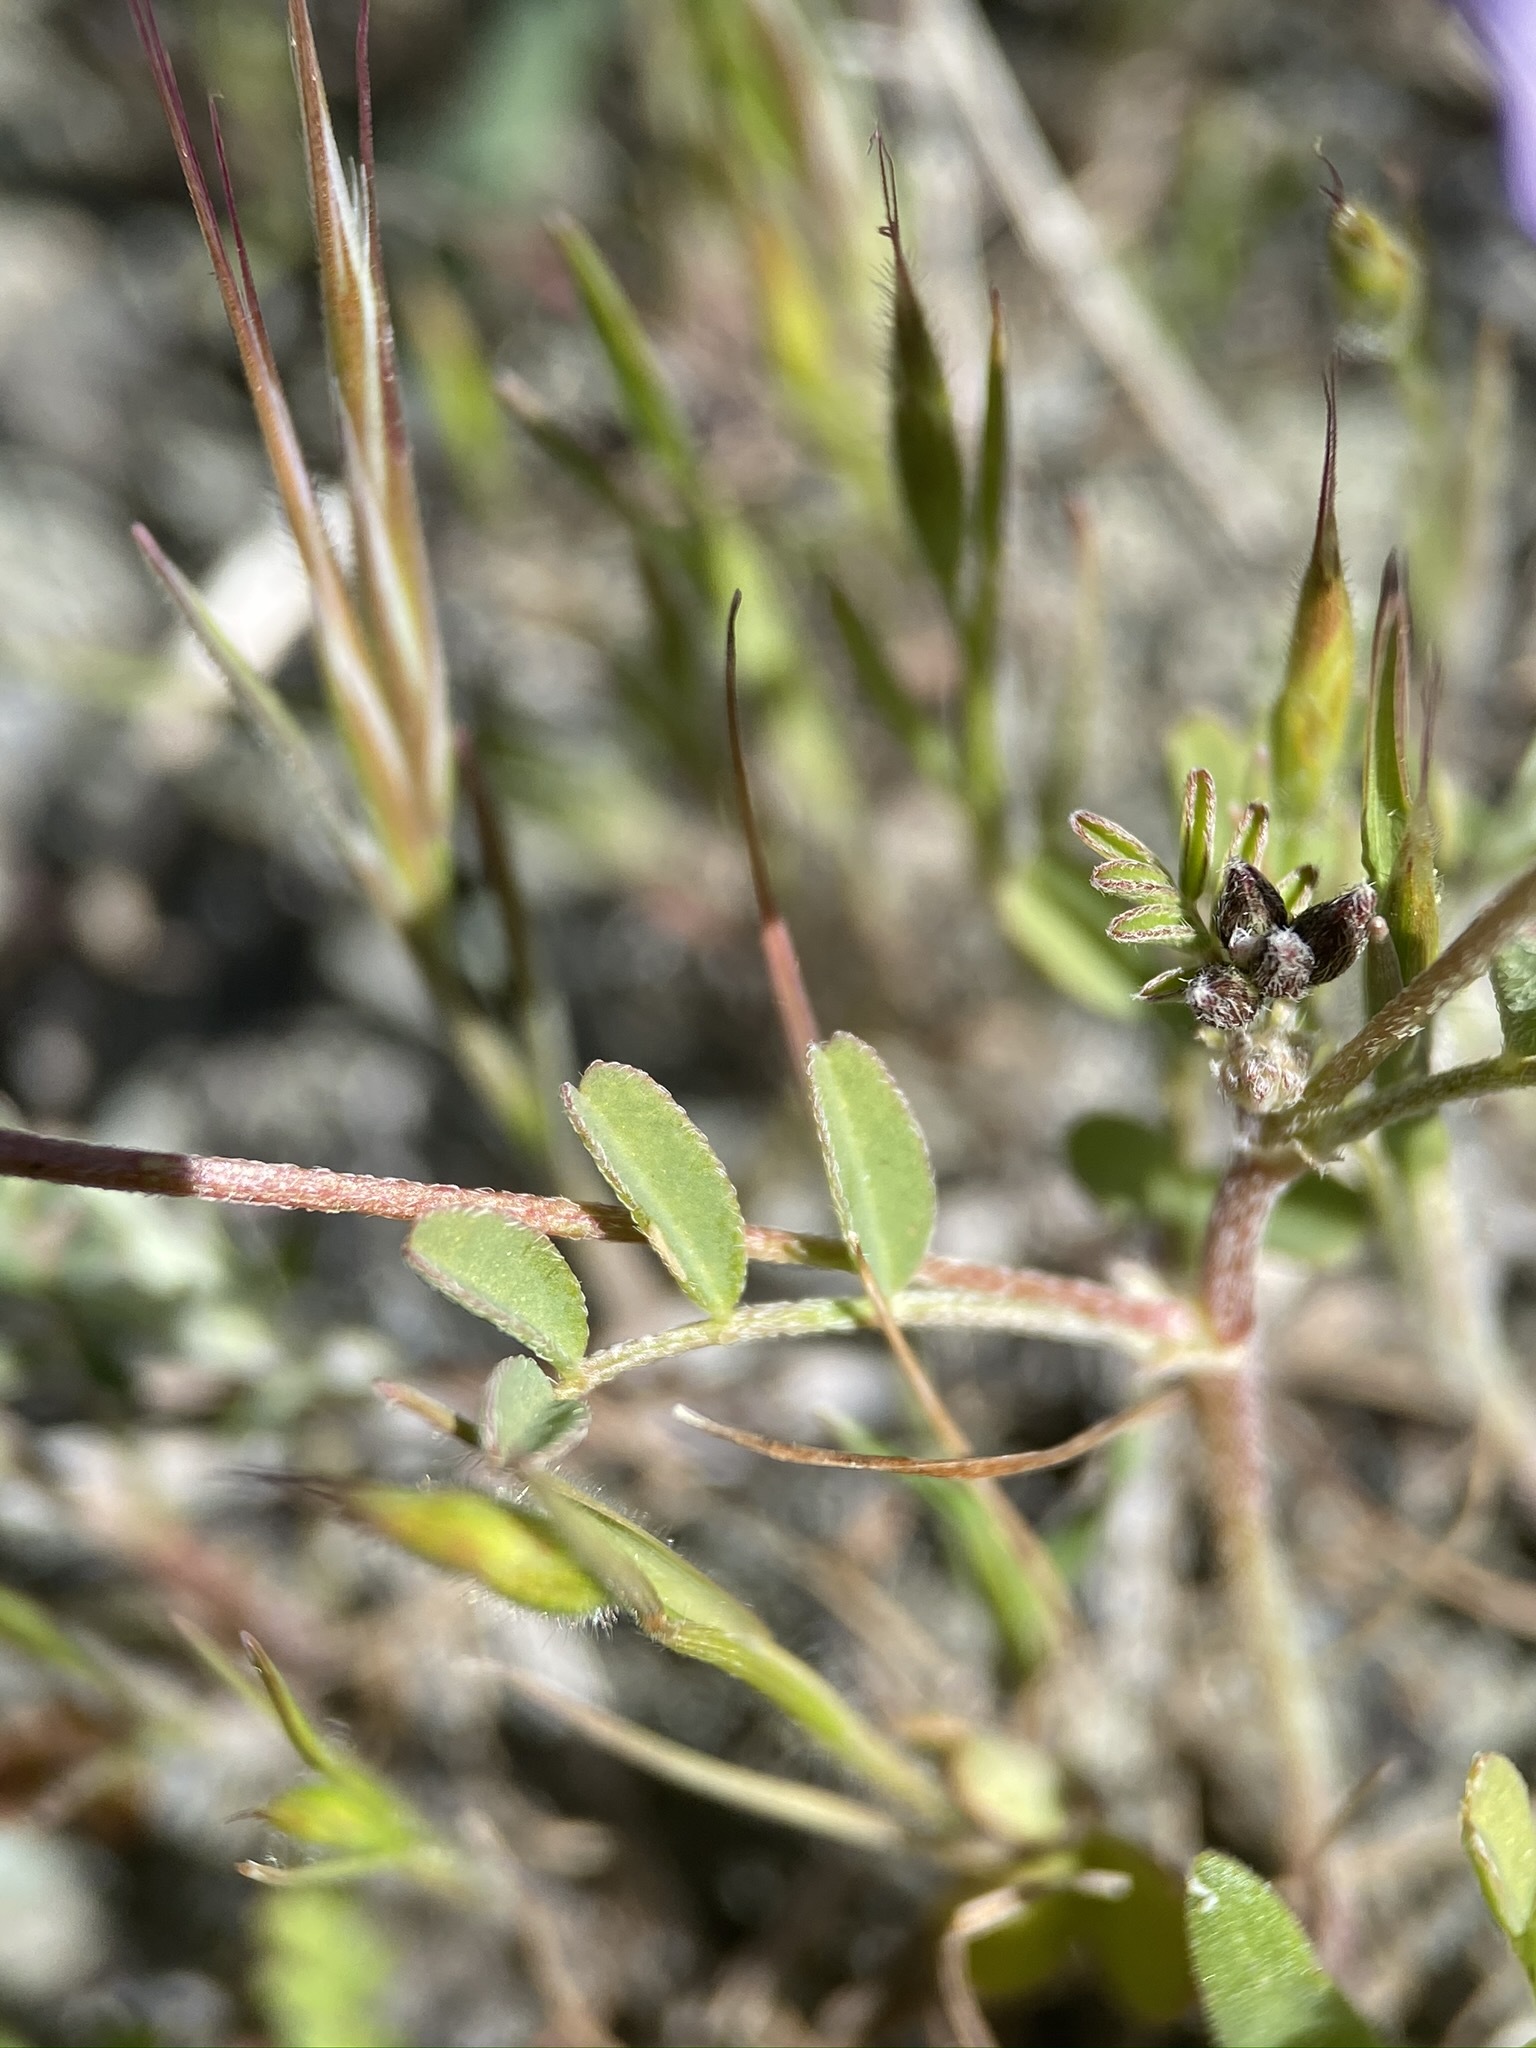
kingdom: Plantae
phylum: Tracheophyta
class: Magnoliopsida
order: Fabales
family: Fabaceae
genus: Astragalus
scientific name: Astragalus rattanii
